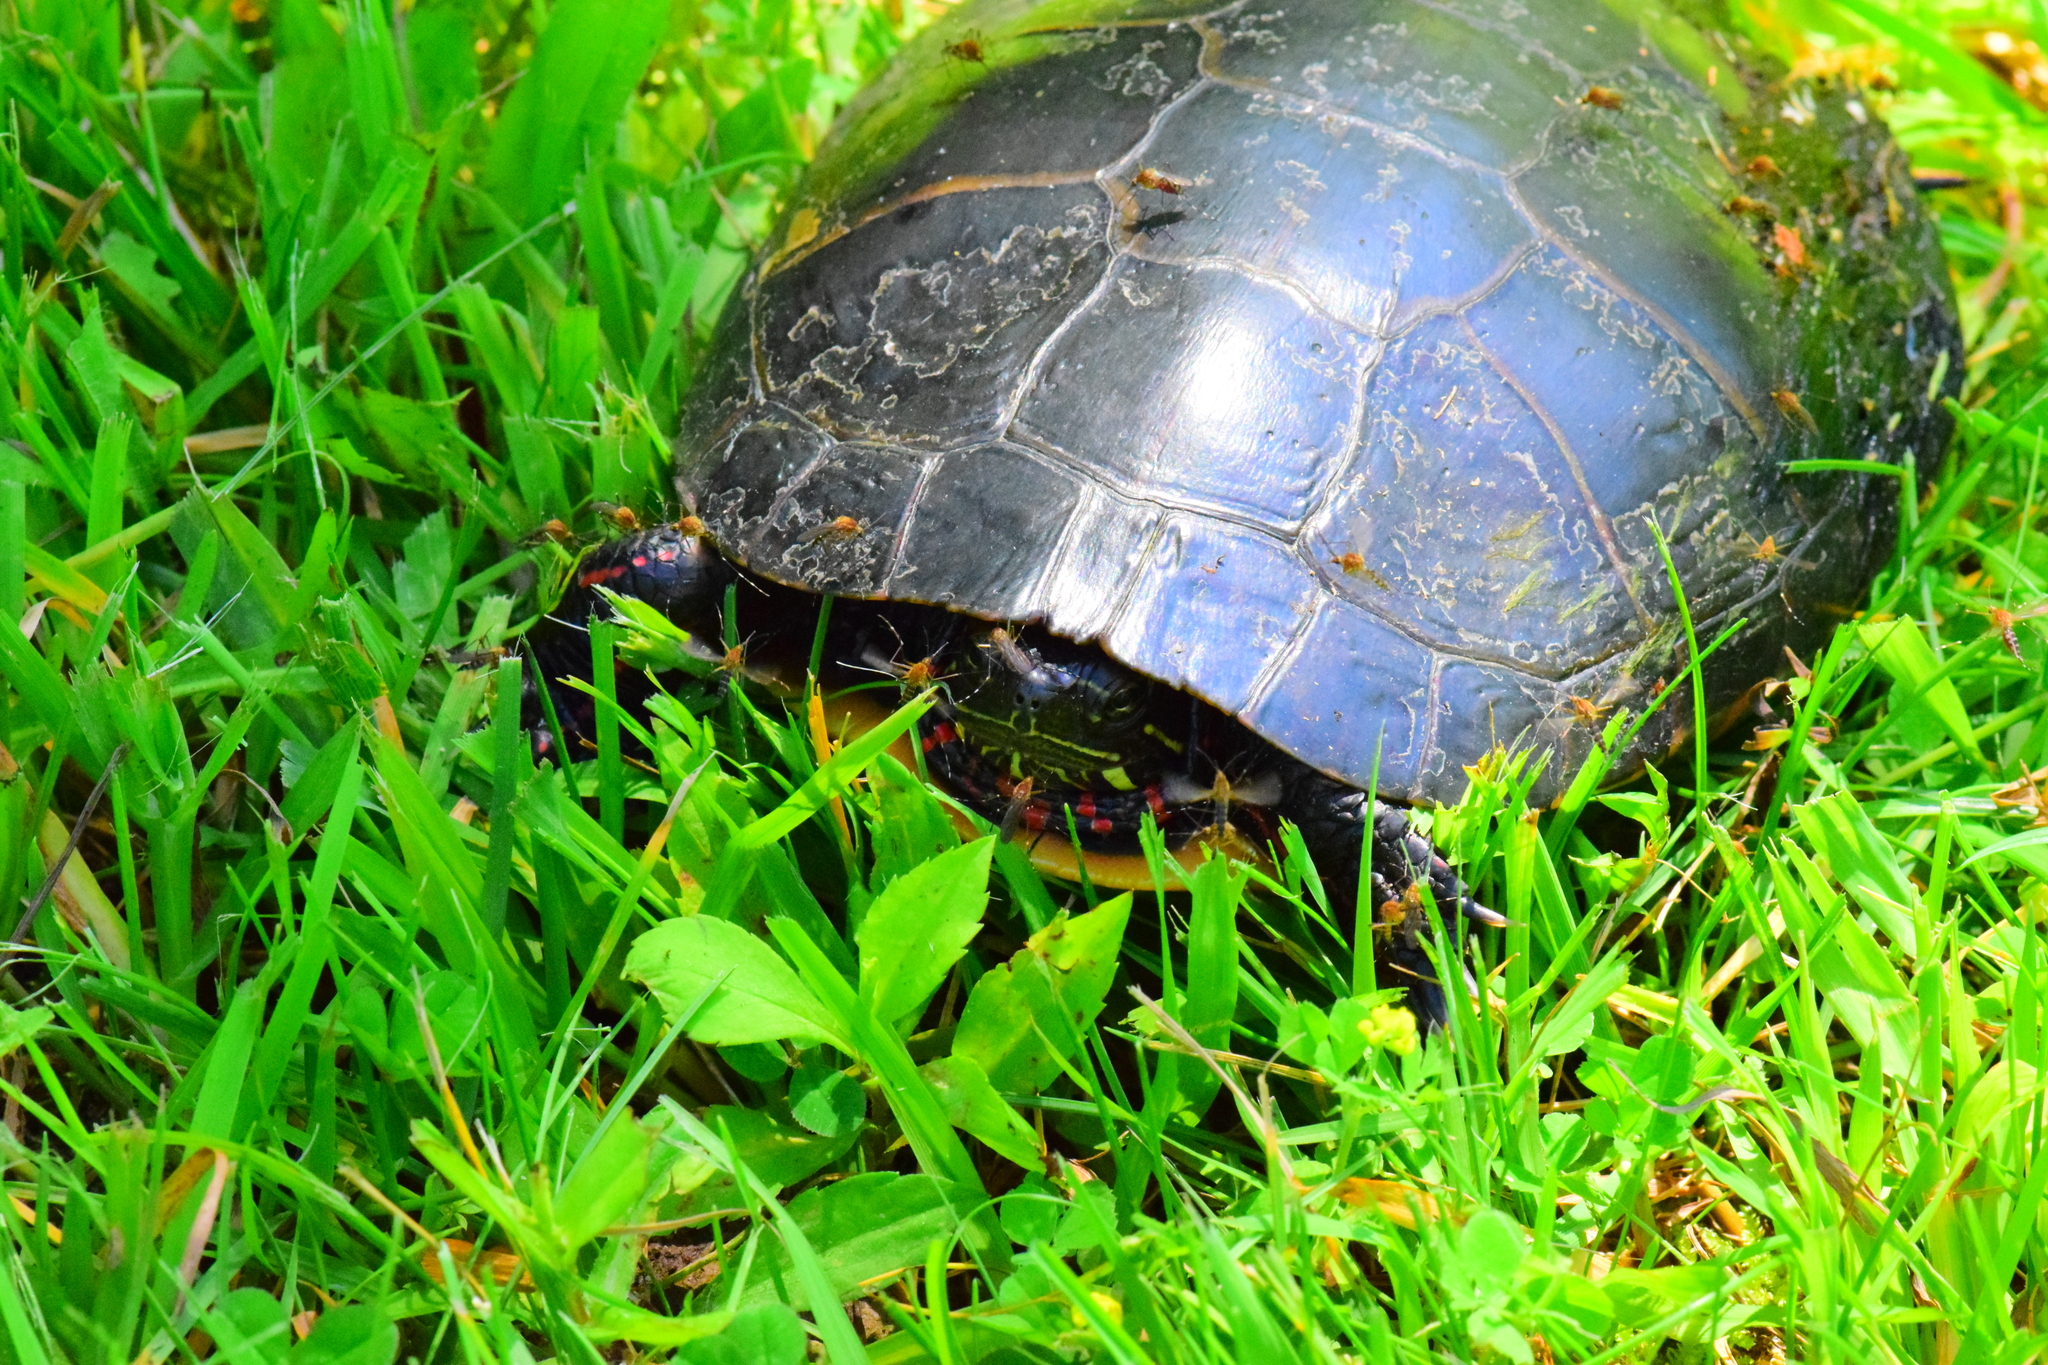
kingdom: Animalia
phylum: Chordata
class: Testudines
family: Emydidae
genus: Chrysemys
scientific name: Chrysemys picta
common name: Painted turtle
